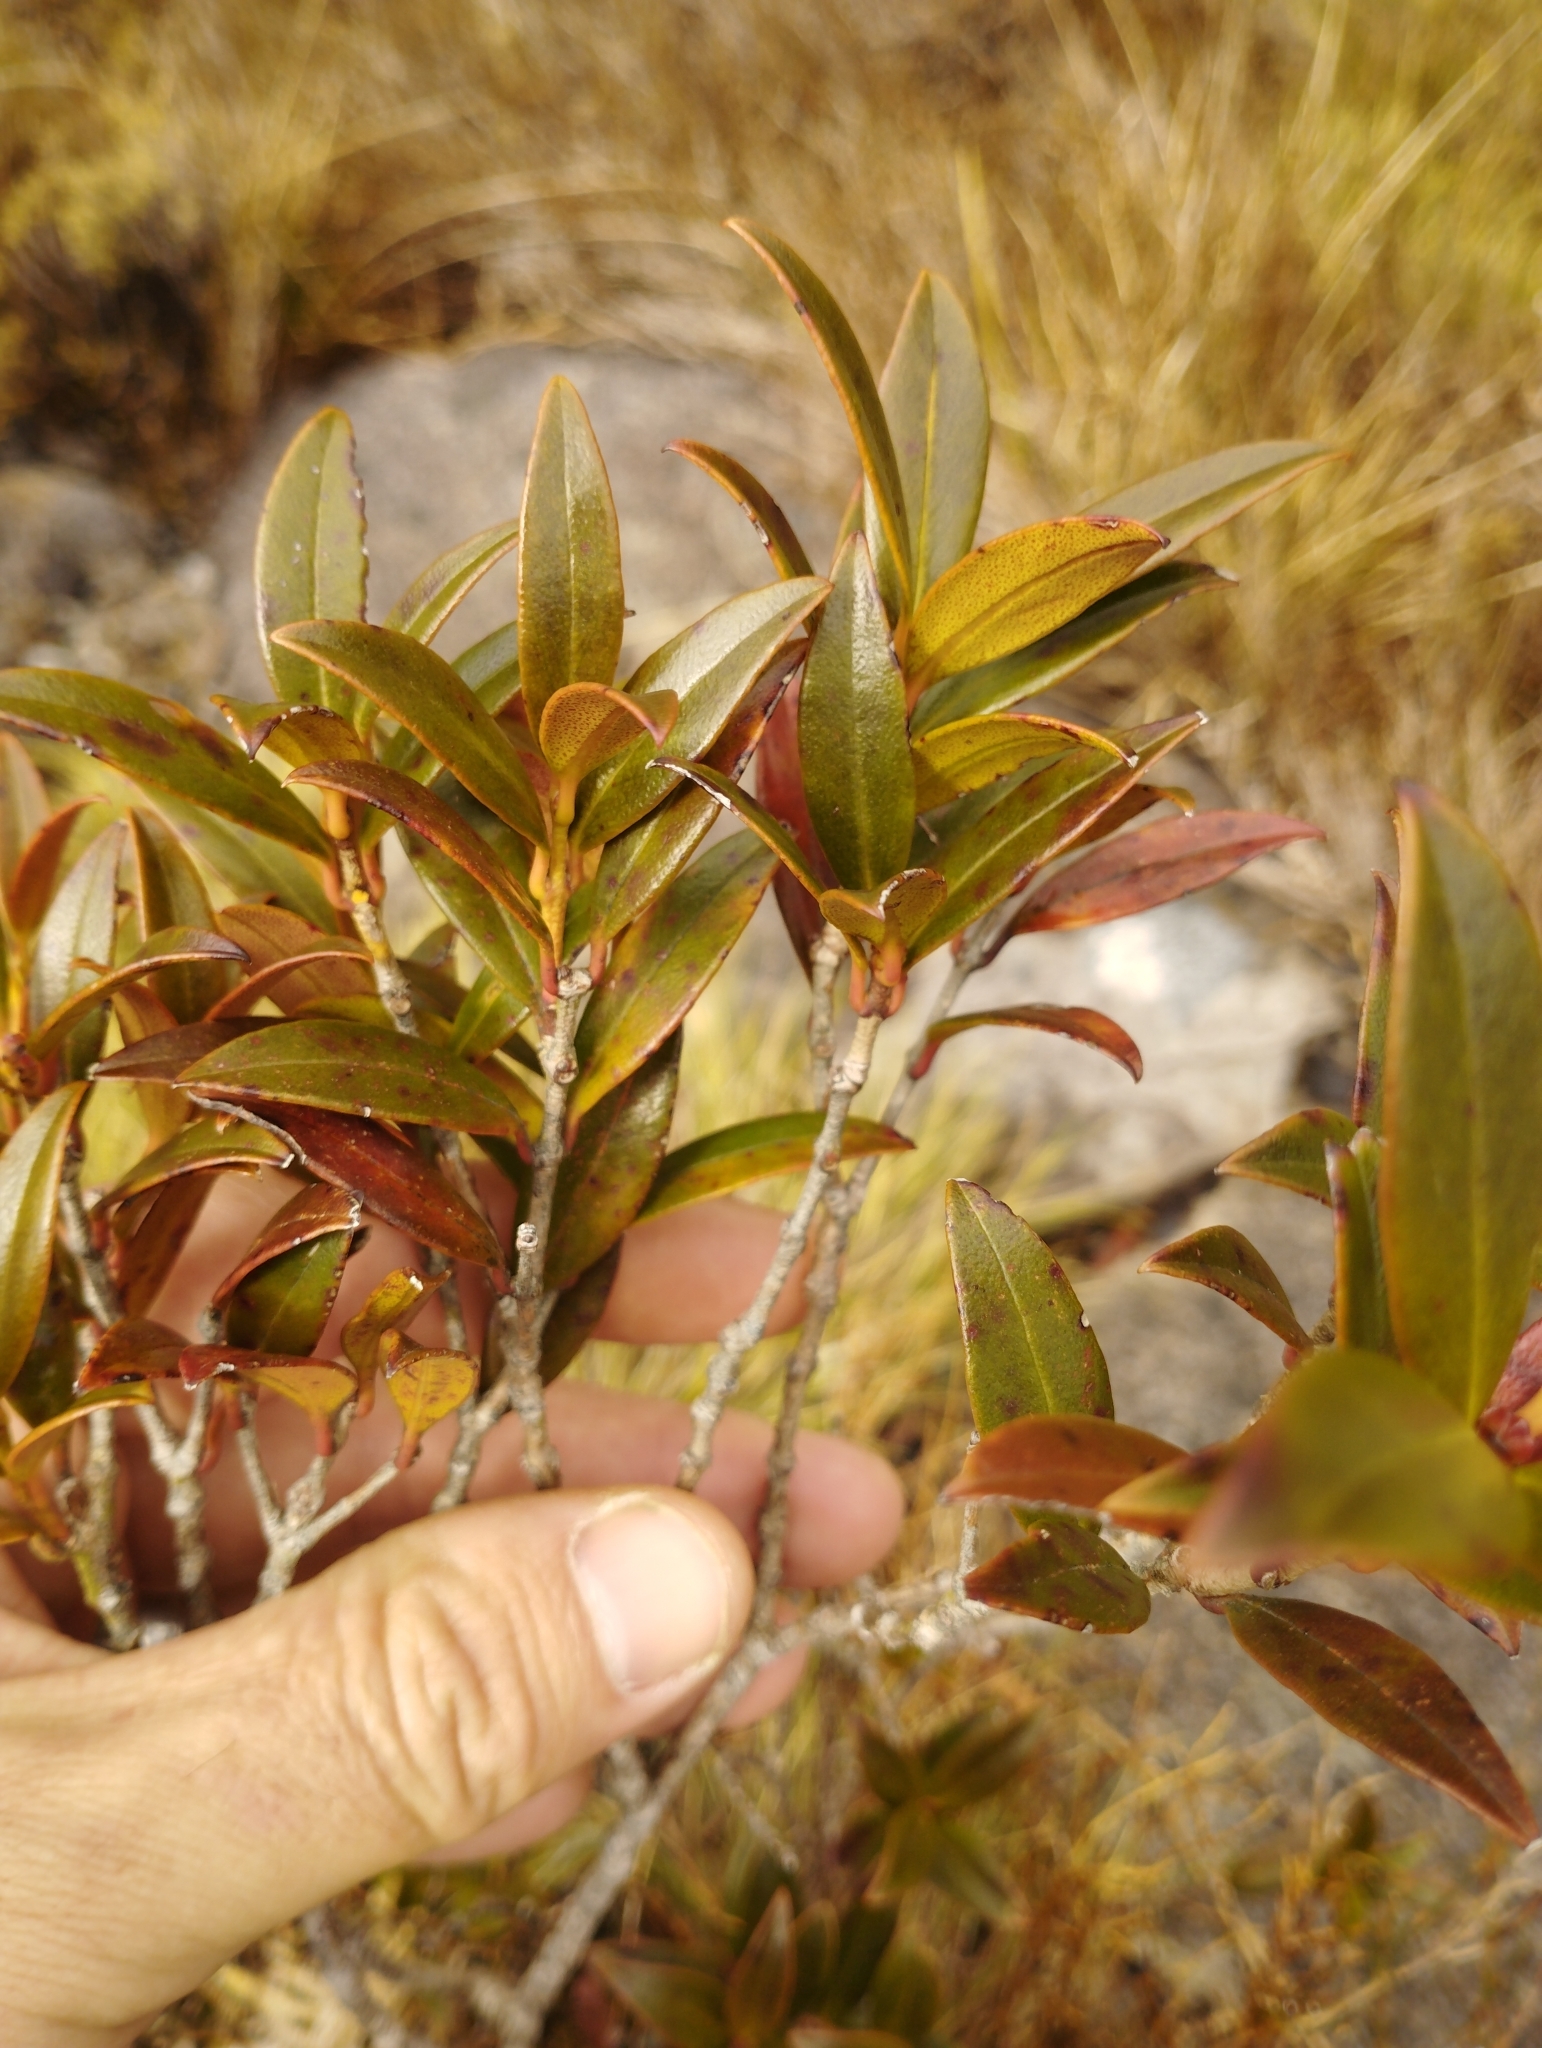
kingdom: Plantae
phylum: Tracheophyta
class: Magnoliopsida
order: Myrtales
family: Myrtaceae
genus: Metrosideros
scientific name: Metrosideros umbellata
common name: Southern rata
